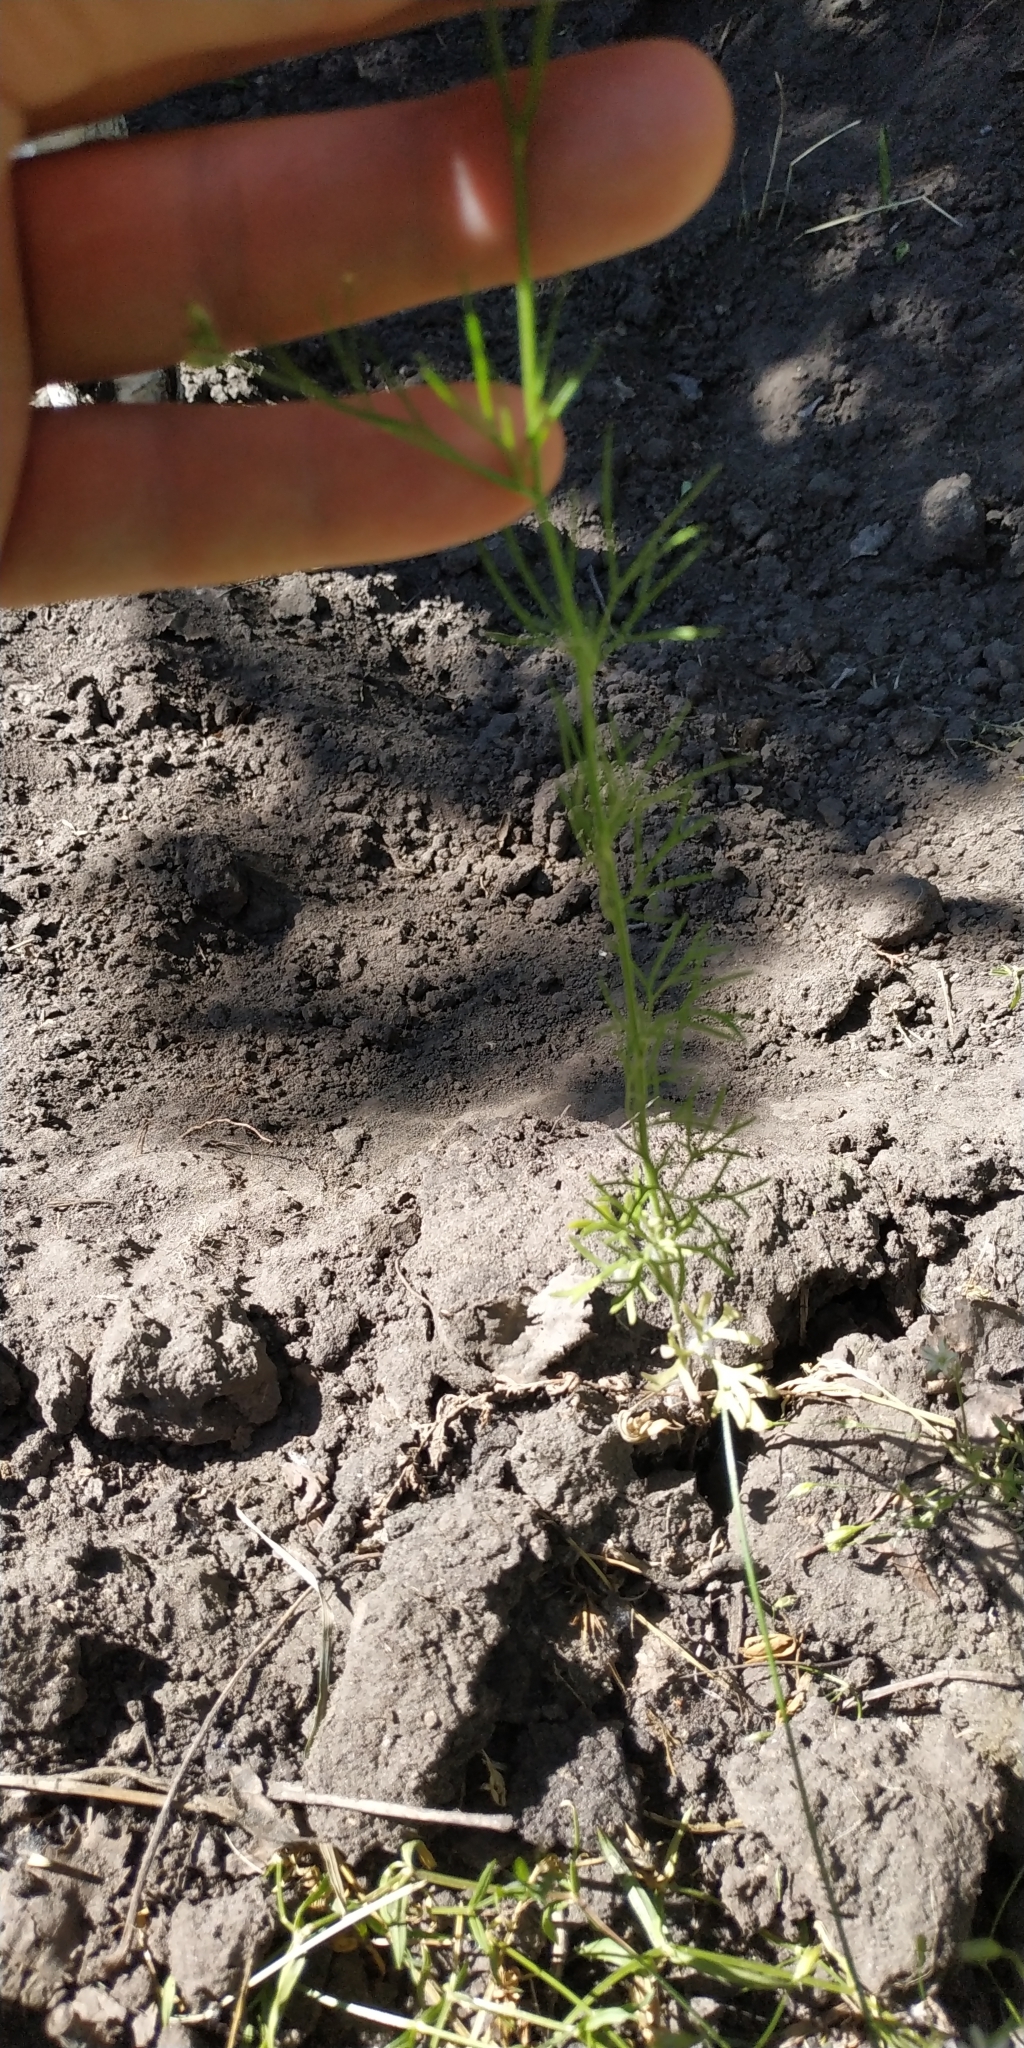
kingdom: Plantae
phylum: Tracheophyta
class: Magnoliopsida
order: Ranunculales
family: Ranunculaceae
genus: Delphinium
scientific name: Delphinium consolida
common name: Branching larkspur
